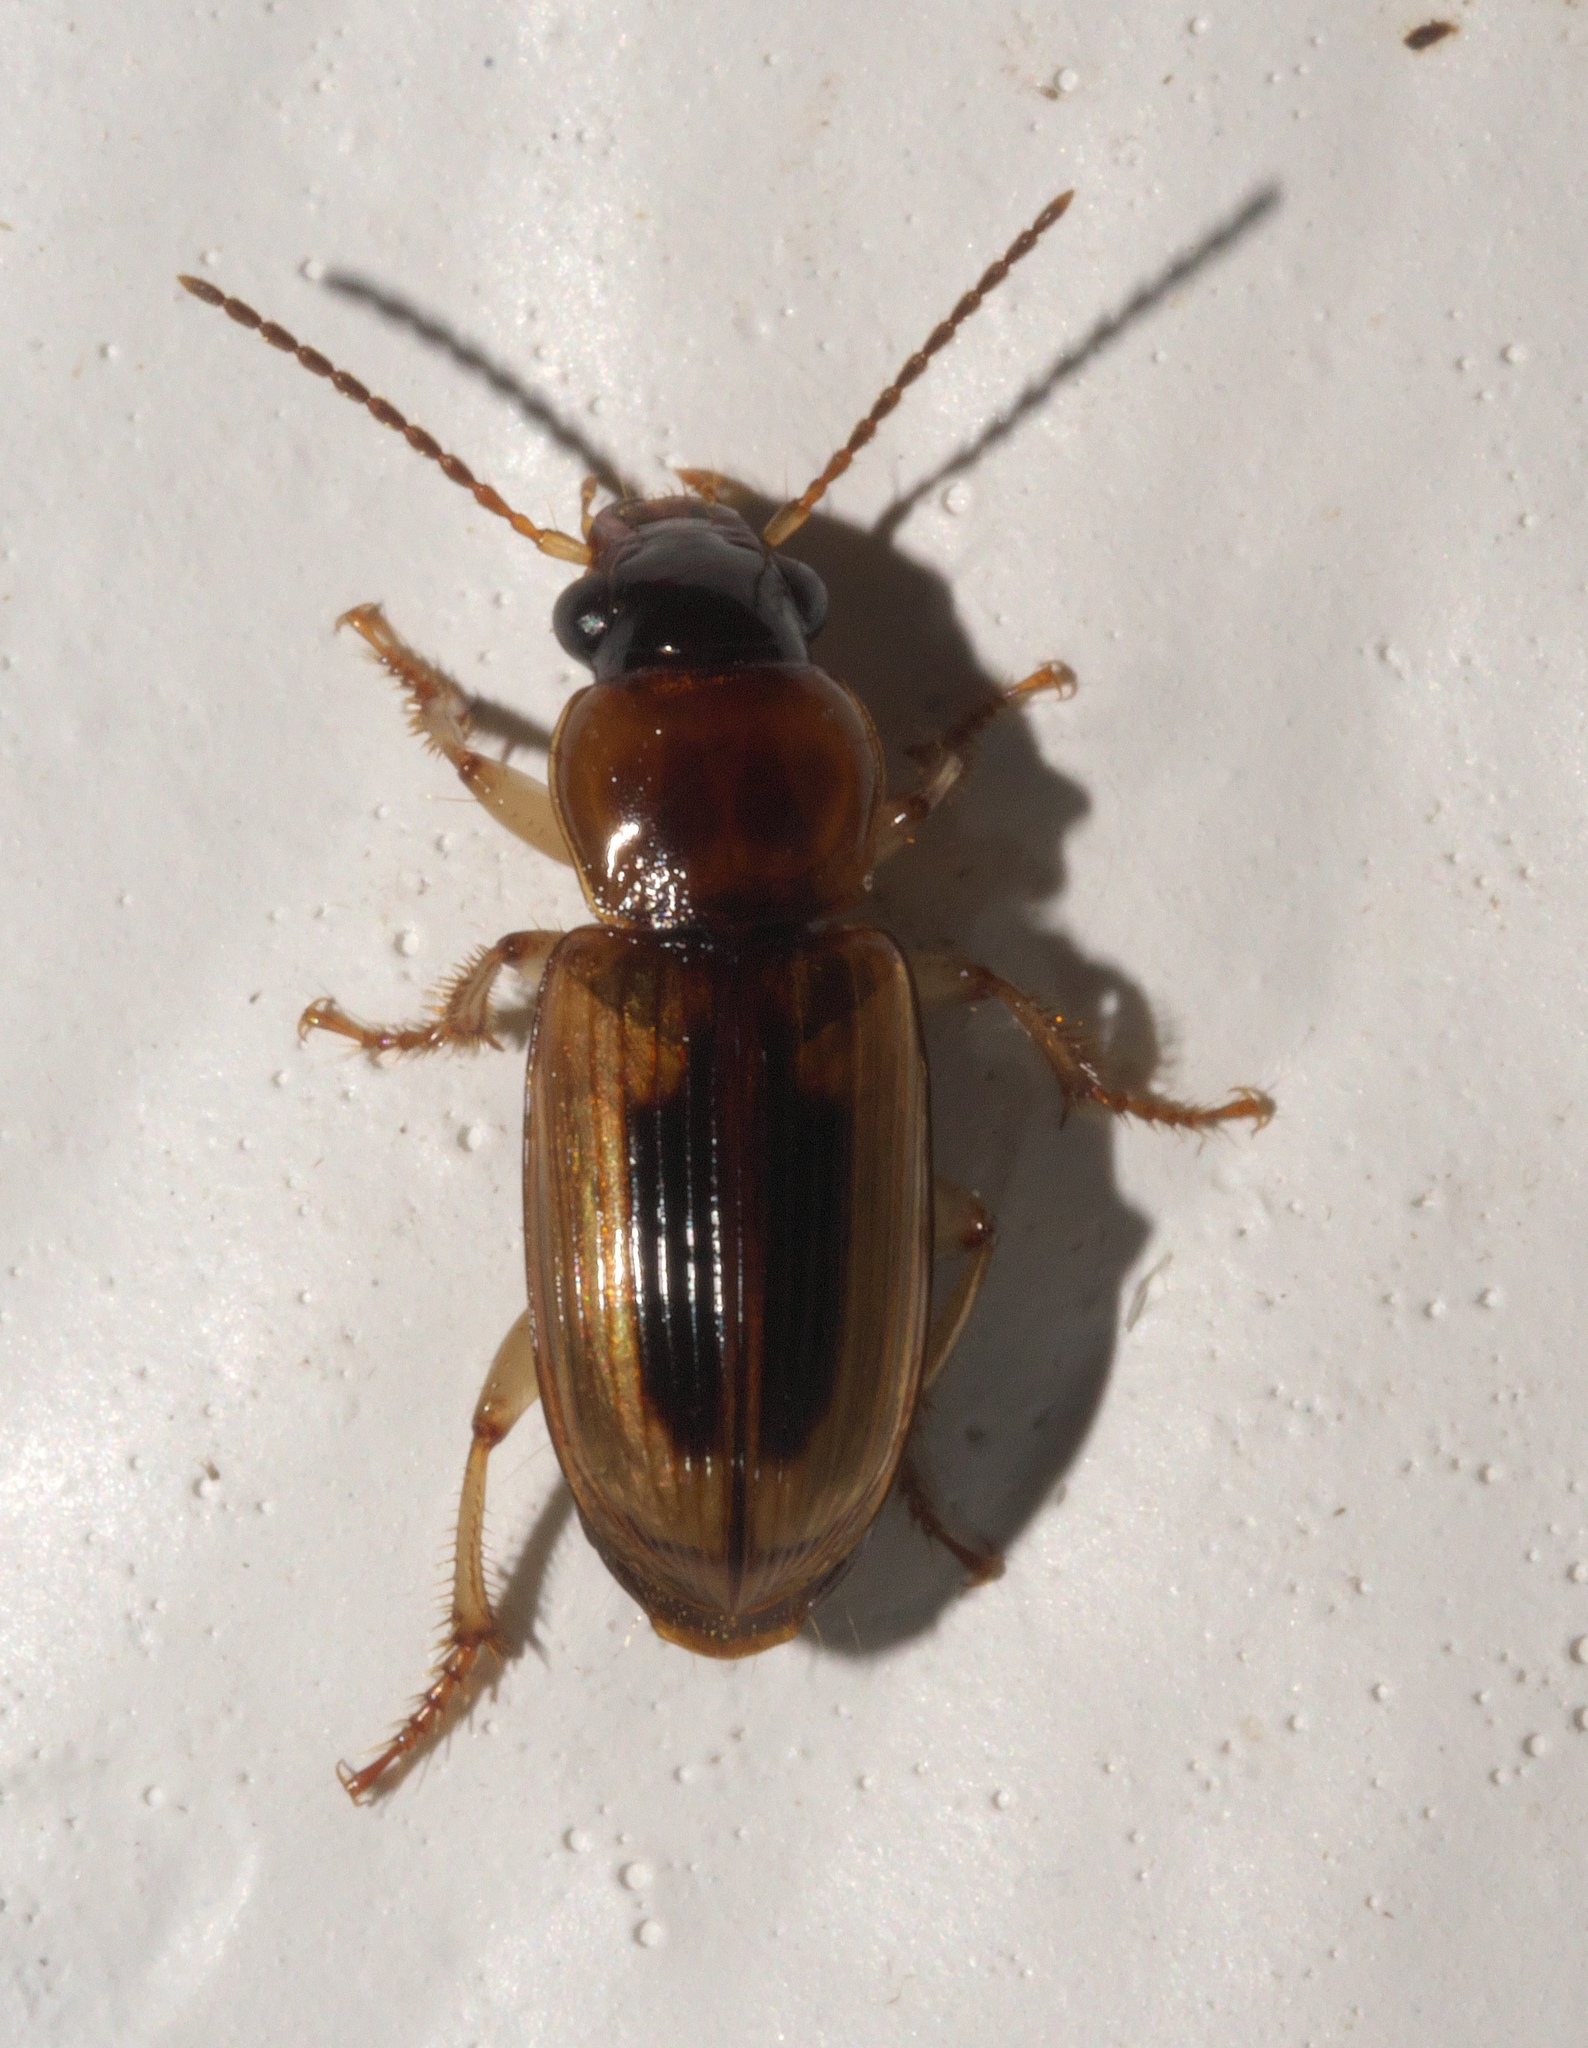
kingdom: Animalia
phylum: Arthropoda
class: Insecta
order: Coleoptera
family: Carabidae
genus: Stenolophus
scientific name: Stenolophus lecontei
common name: Leconte's seedcorn beetle
